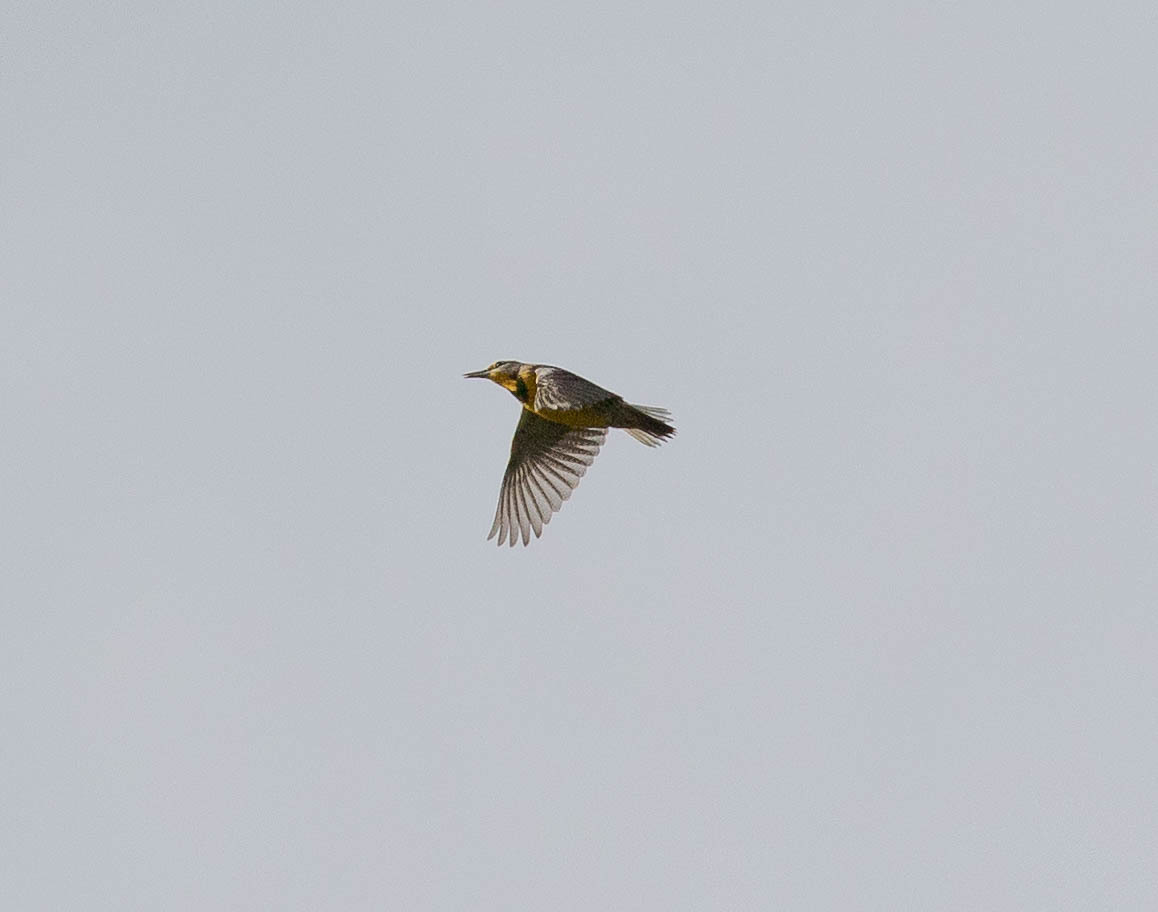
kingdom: Animalia
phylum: Chordata
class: Aves
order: Passeriformes
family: Icteridae
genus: Sturnella
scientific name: Sturnella magna
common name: Eastern meadowlark
